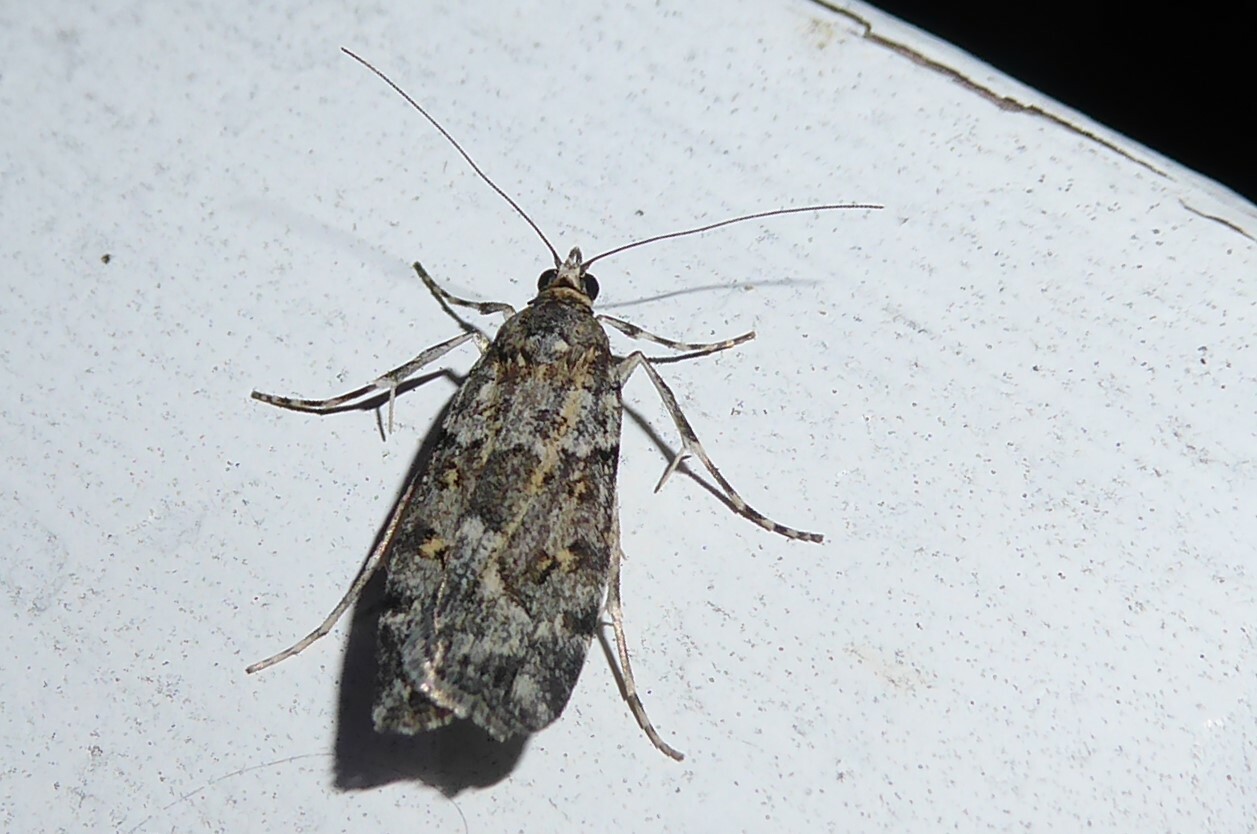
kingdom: Animalia
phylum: Arthropoda
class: Insecta
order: Lepidoptera
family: Crambidae
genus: Scoparia
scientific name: Scoparia tetracycla
